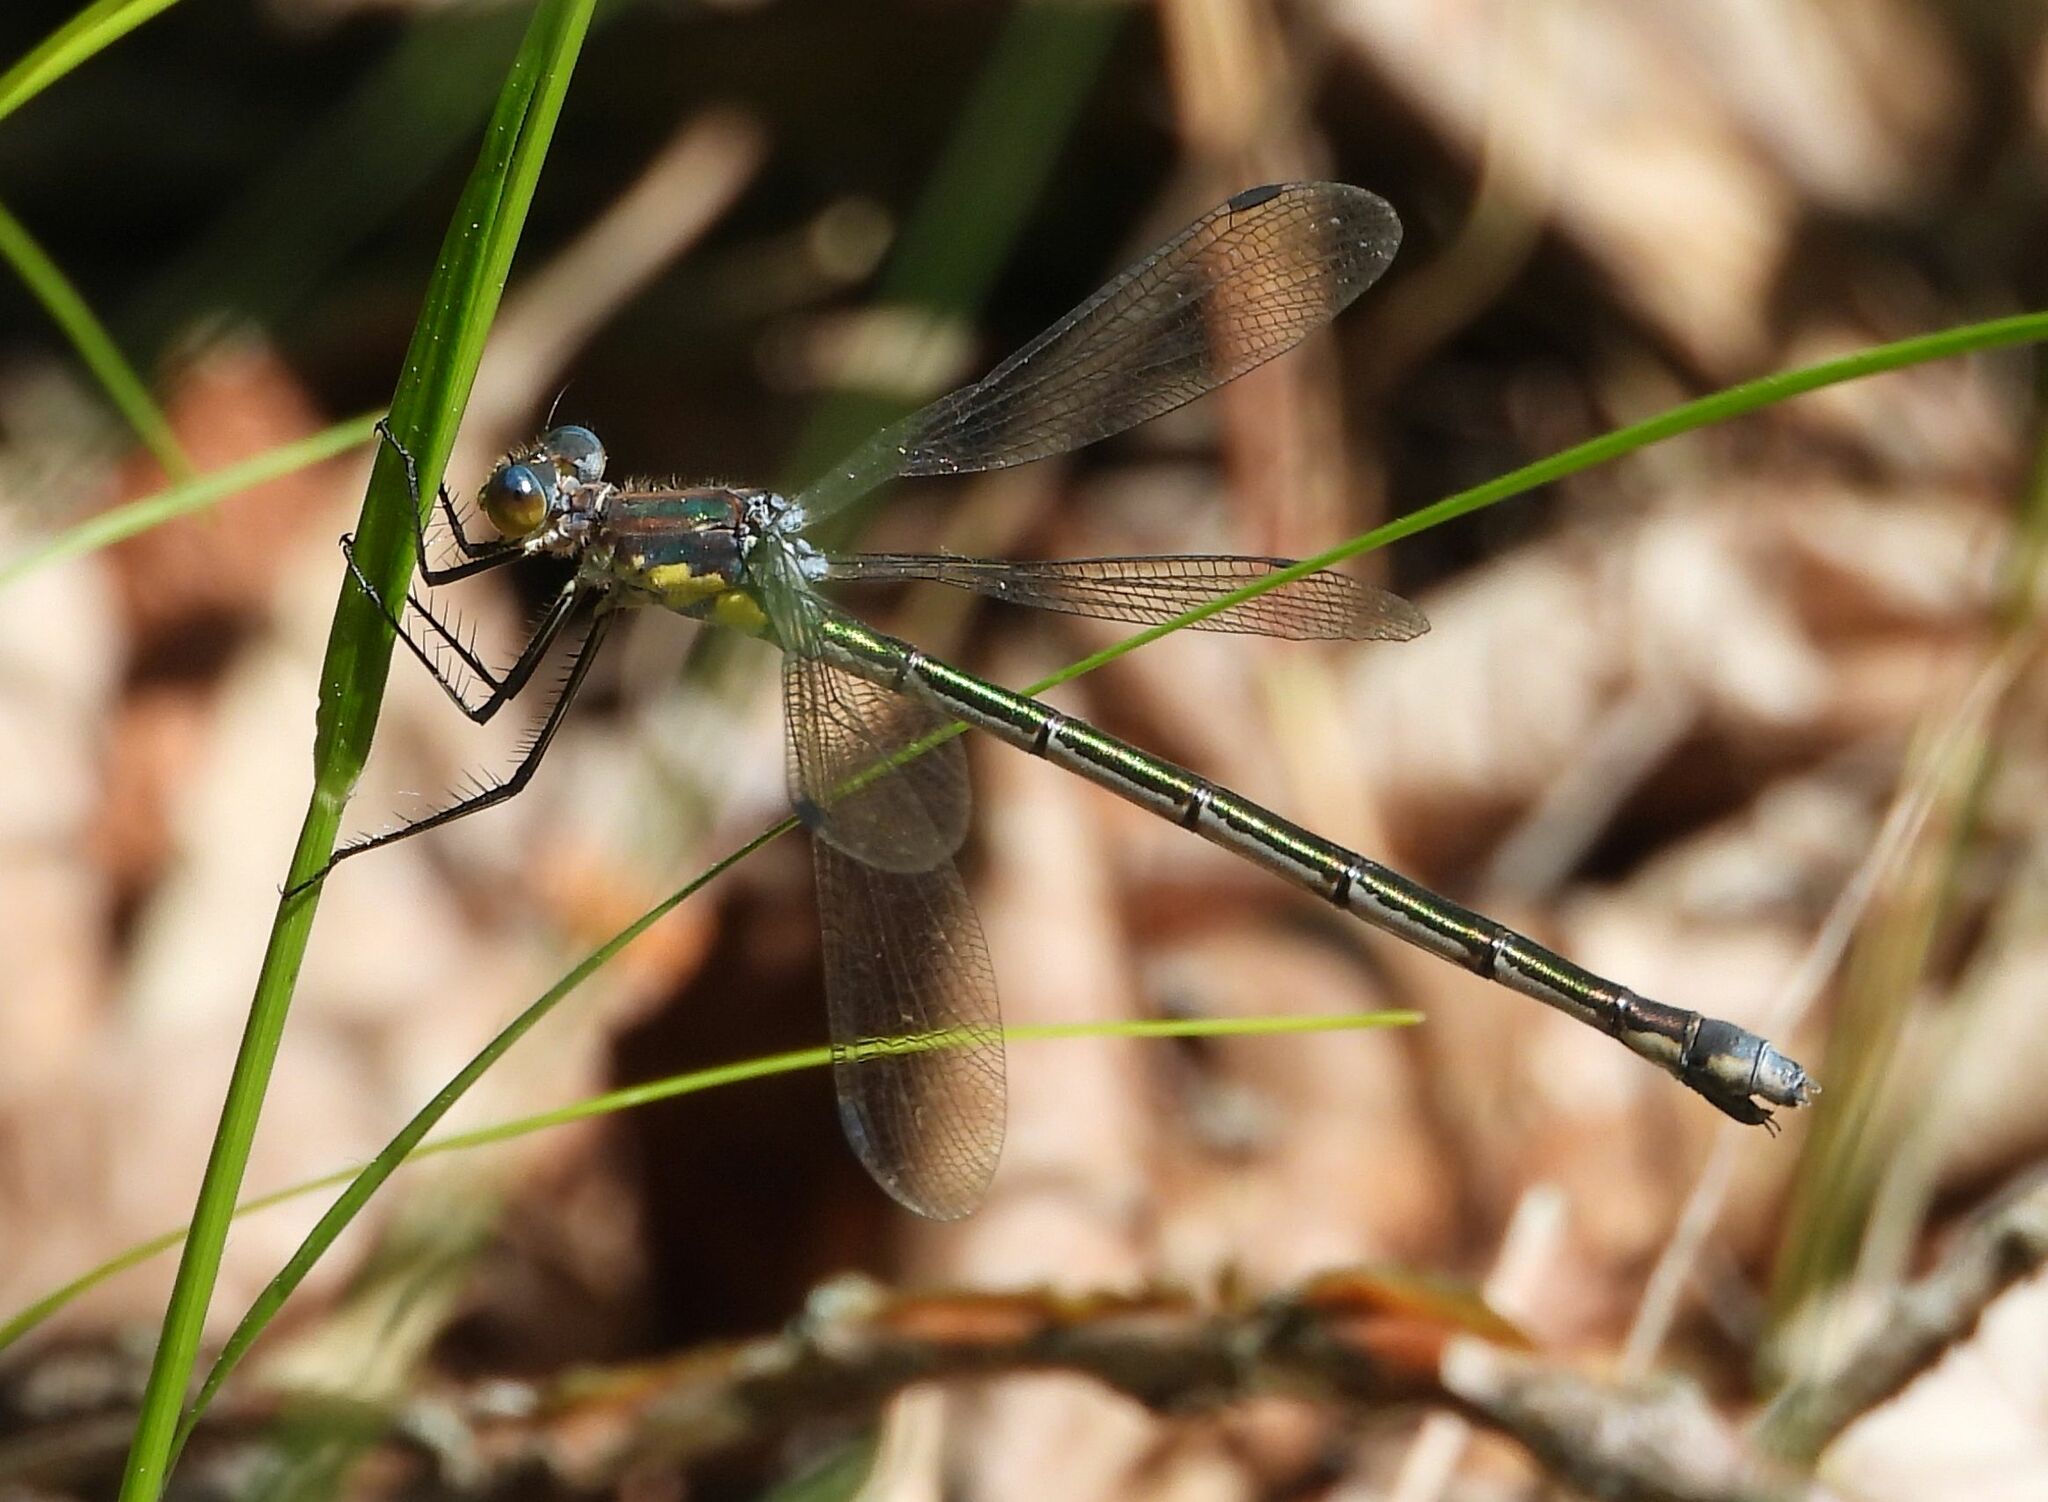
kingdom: Animalia
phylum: Arthropoda
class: Insecta
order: Odonata
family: Lestidae
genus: Lestes
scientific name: Lestes eurinus
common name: Amber-winged spreadwing
